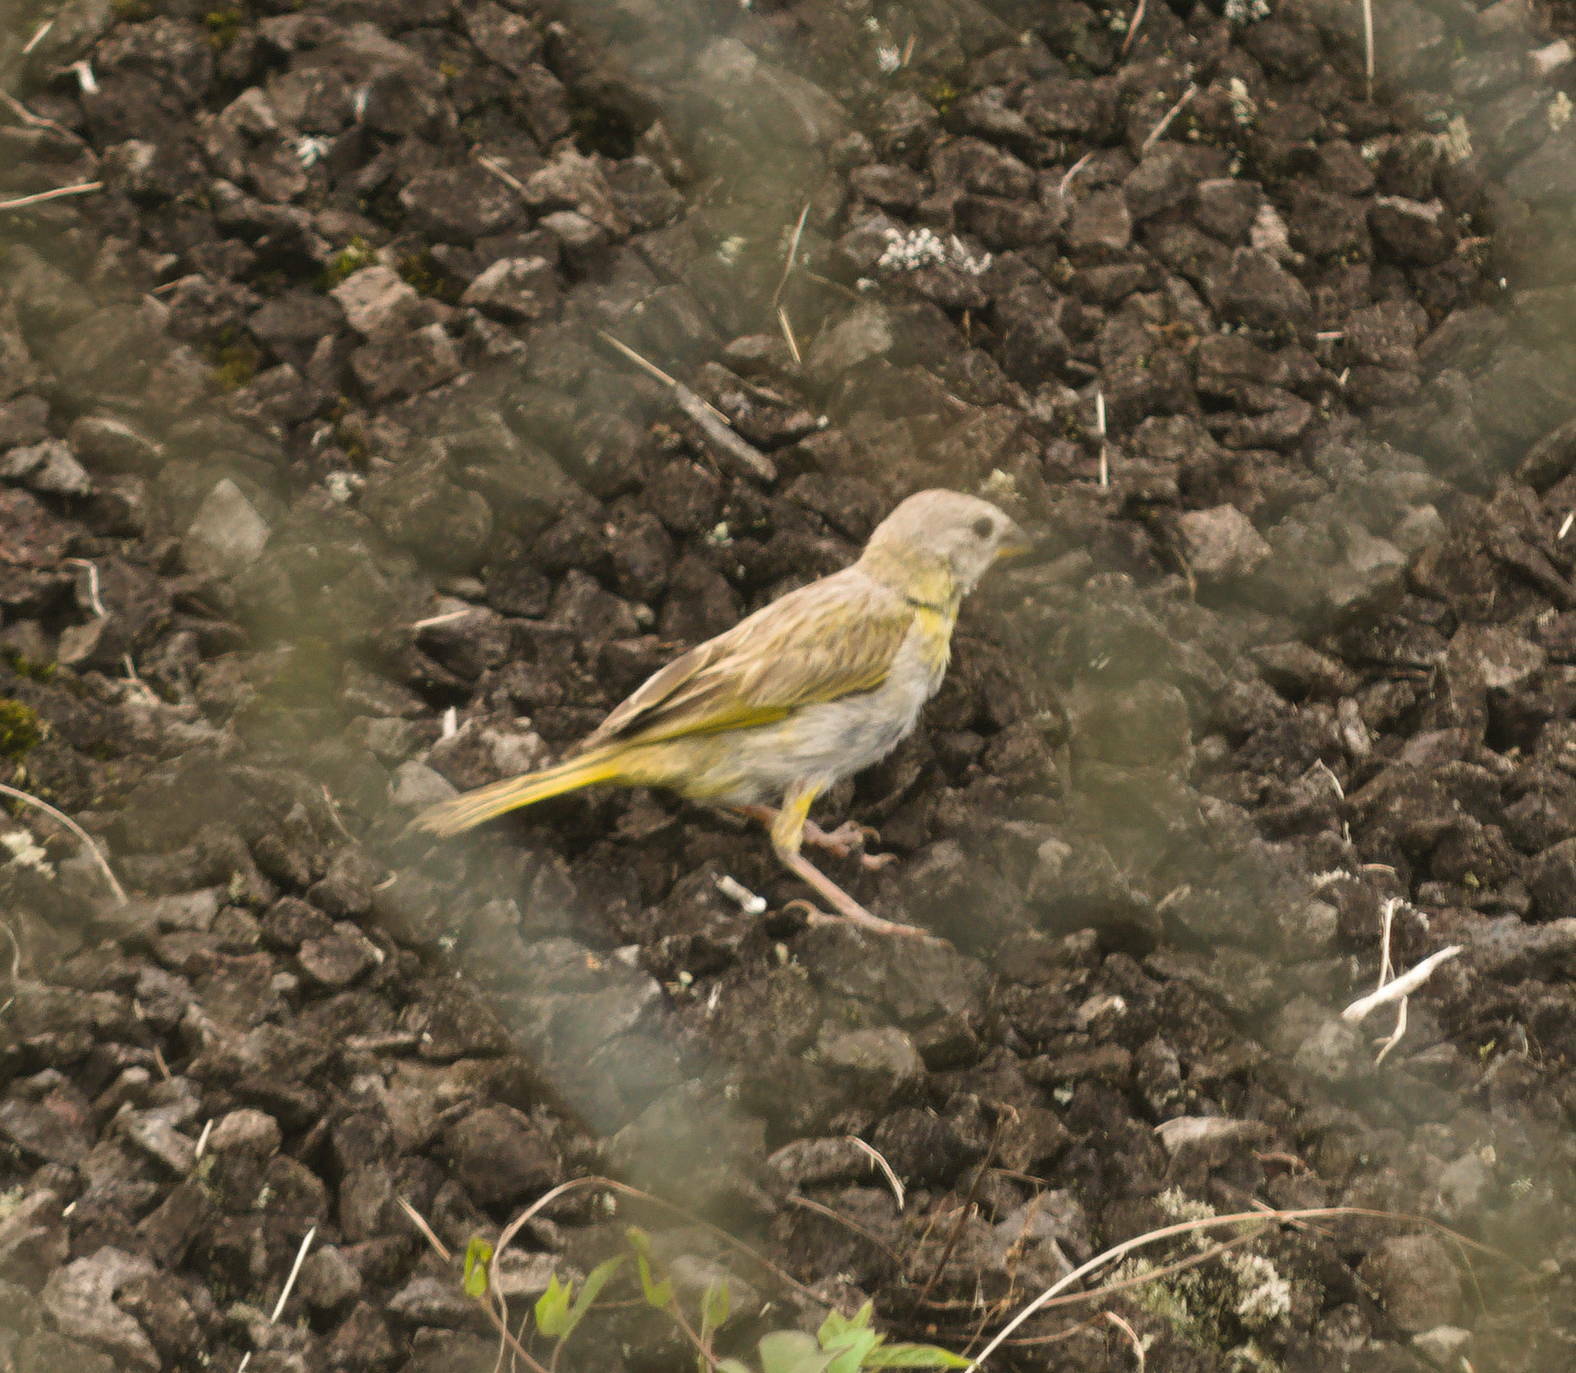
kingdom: Animalia
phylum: Chordata
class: Aves
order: Passeriformes
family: Thraupidae
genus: Sicalis
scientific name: Sicalis flaveola
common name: Saffron finch
